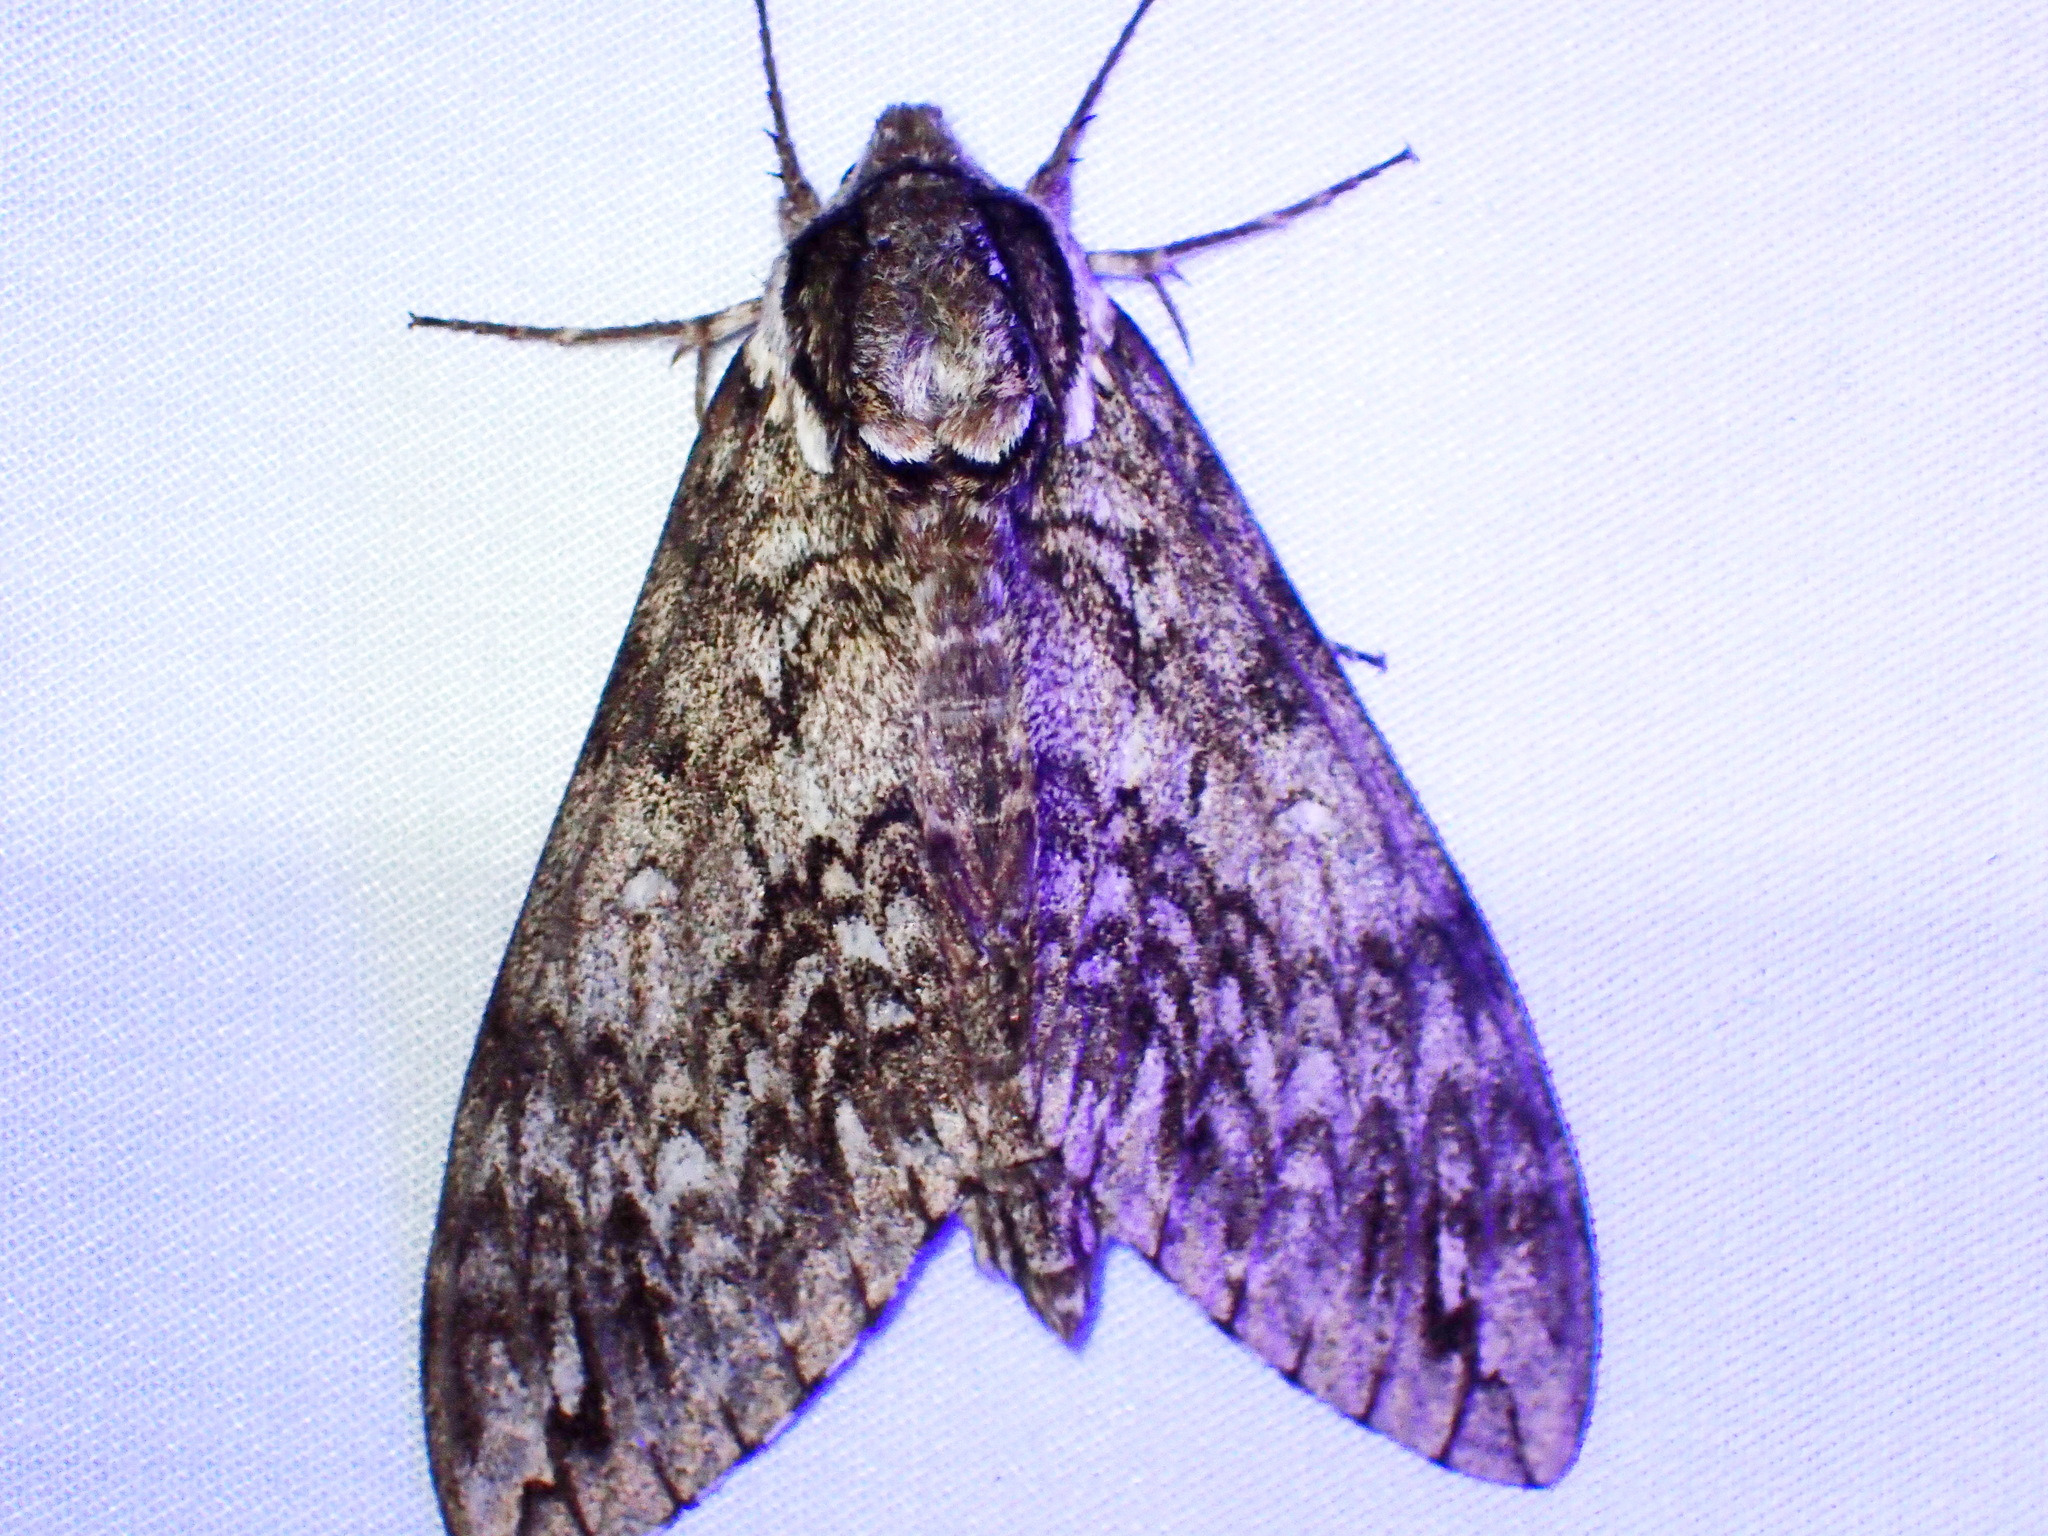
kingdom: Animalia
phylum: Arthropoda
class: Insecta
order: Lepidoptera
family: Sphingidae
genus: Ceratomia
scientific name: Ceratomia undulosa
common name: Waved sphinx
